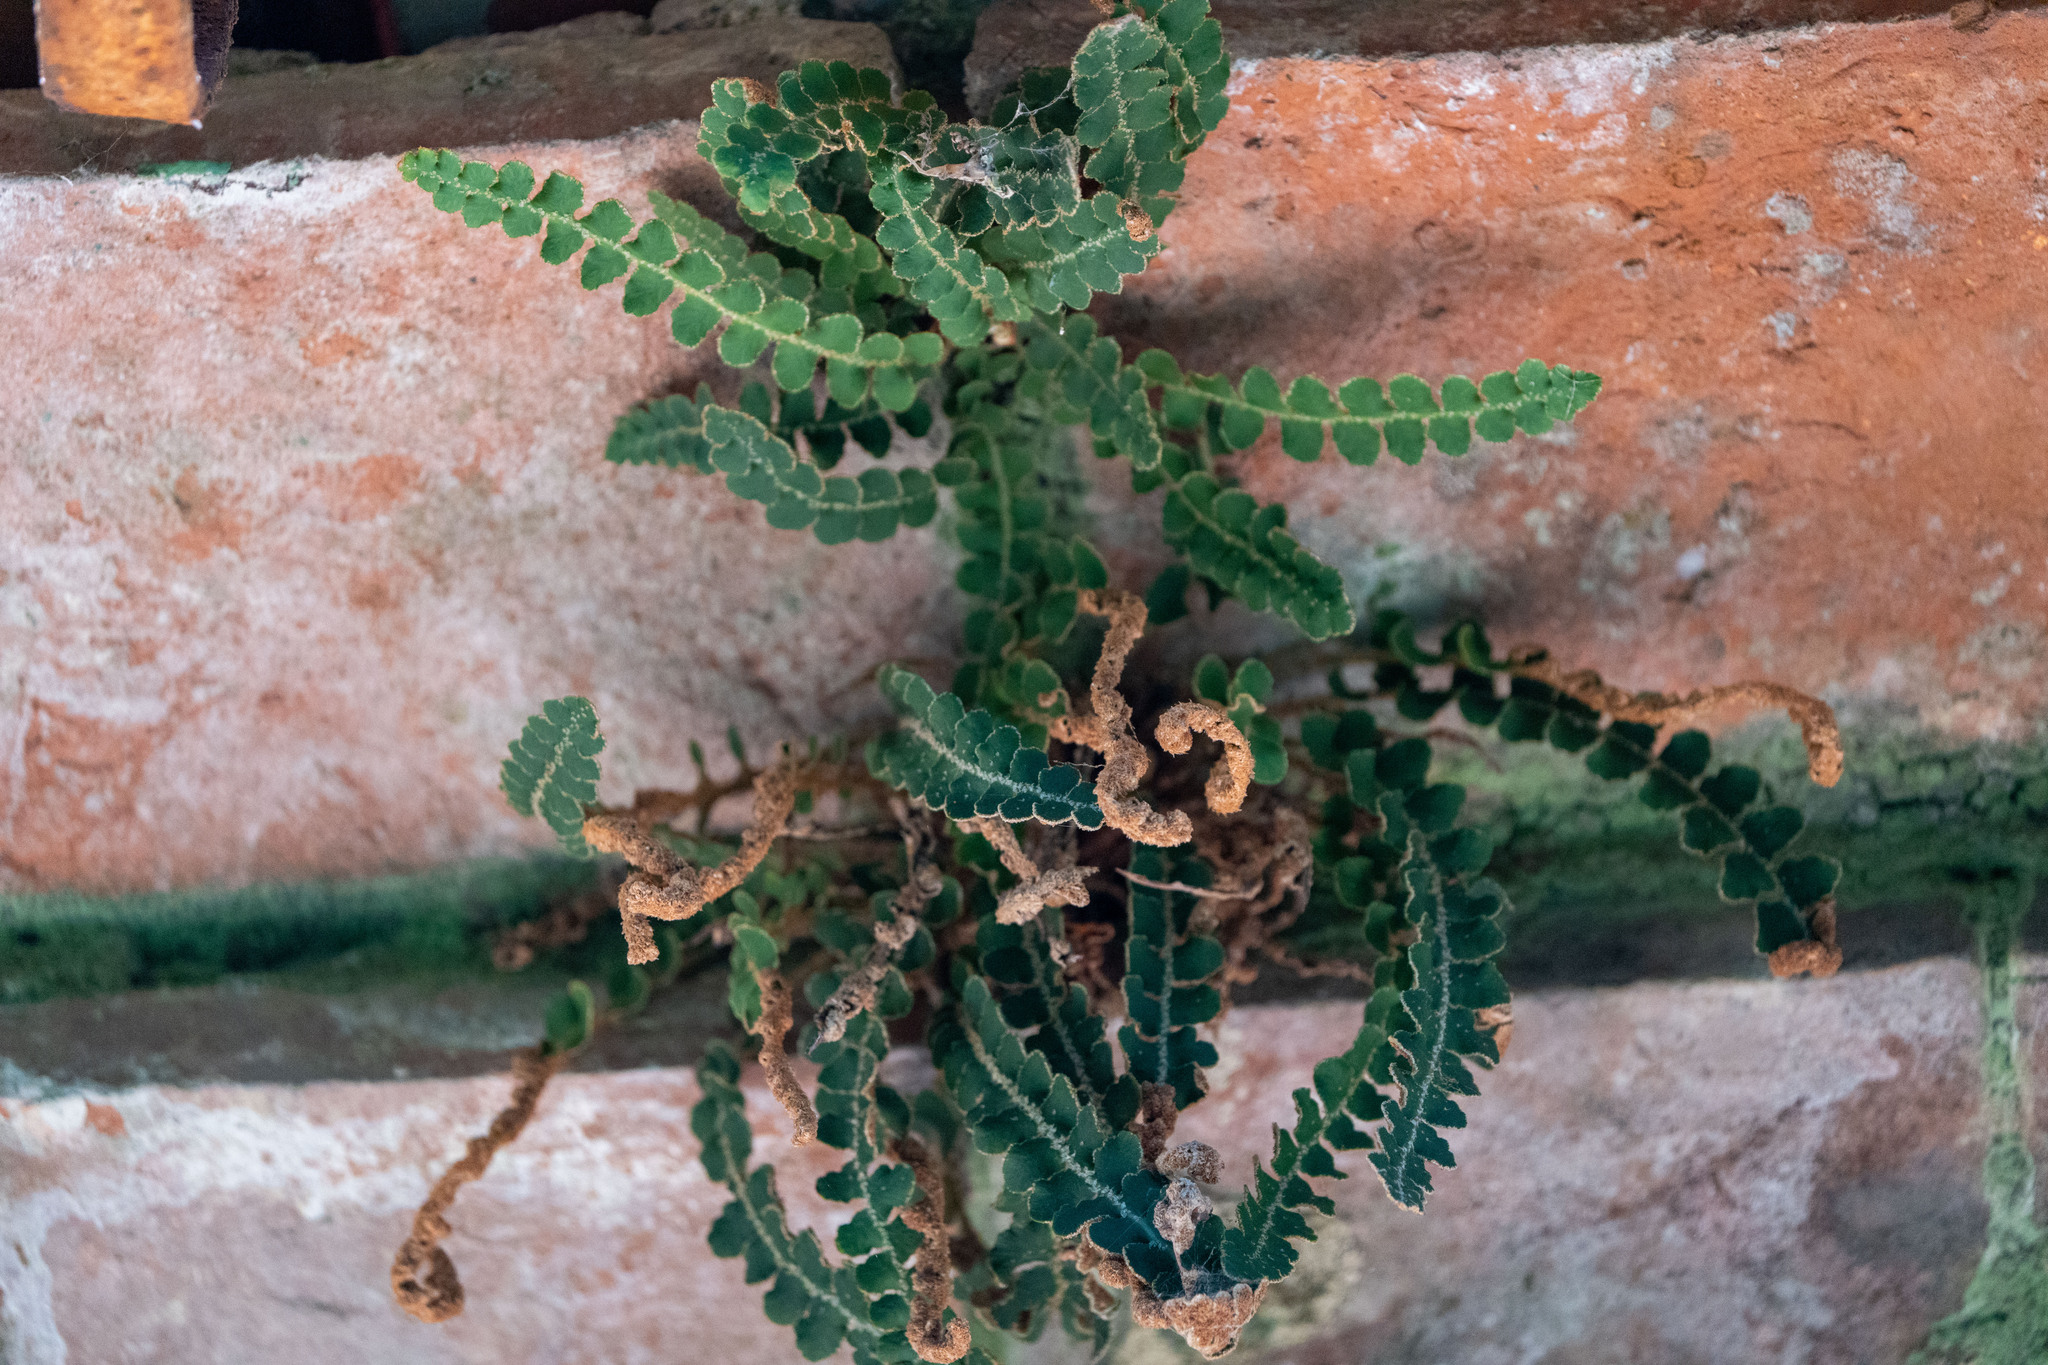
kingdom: Plantae
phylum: Tracheophyta
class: Polypodiopsida
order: Polypodiales
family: Aspleniaceae
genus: Asplenium
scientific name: Asplenium ceterach
